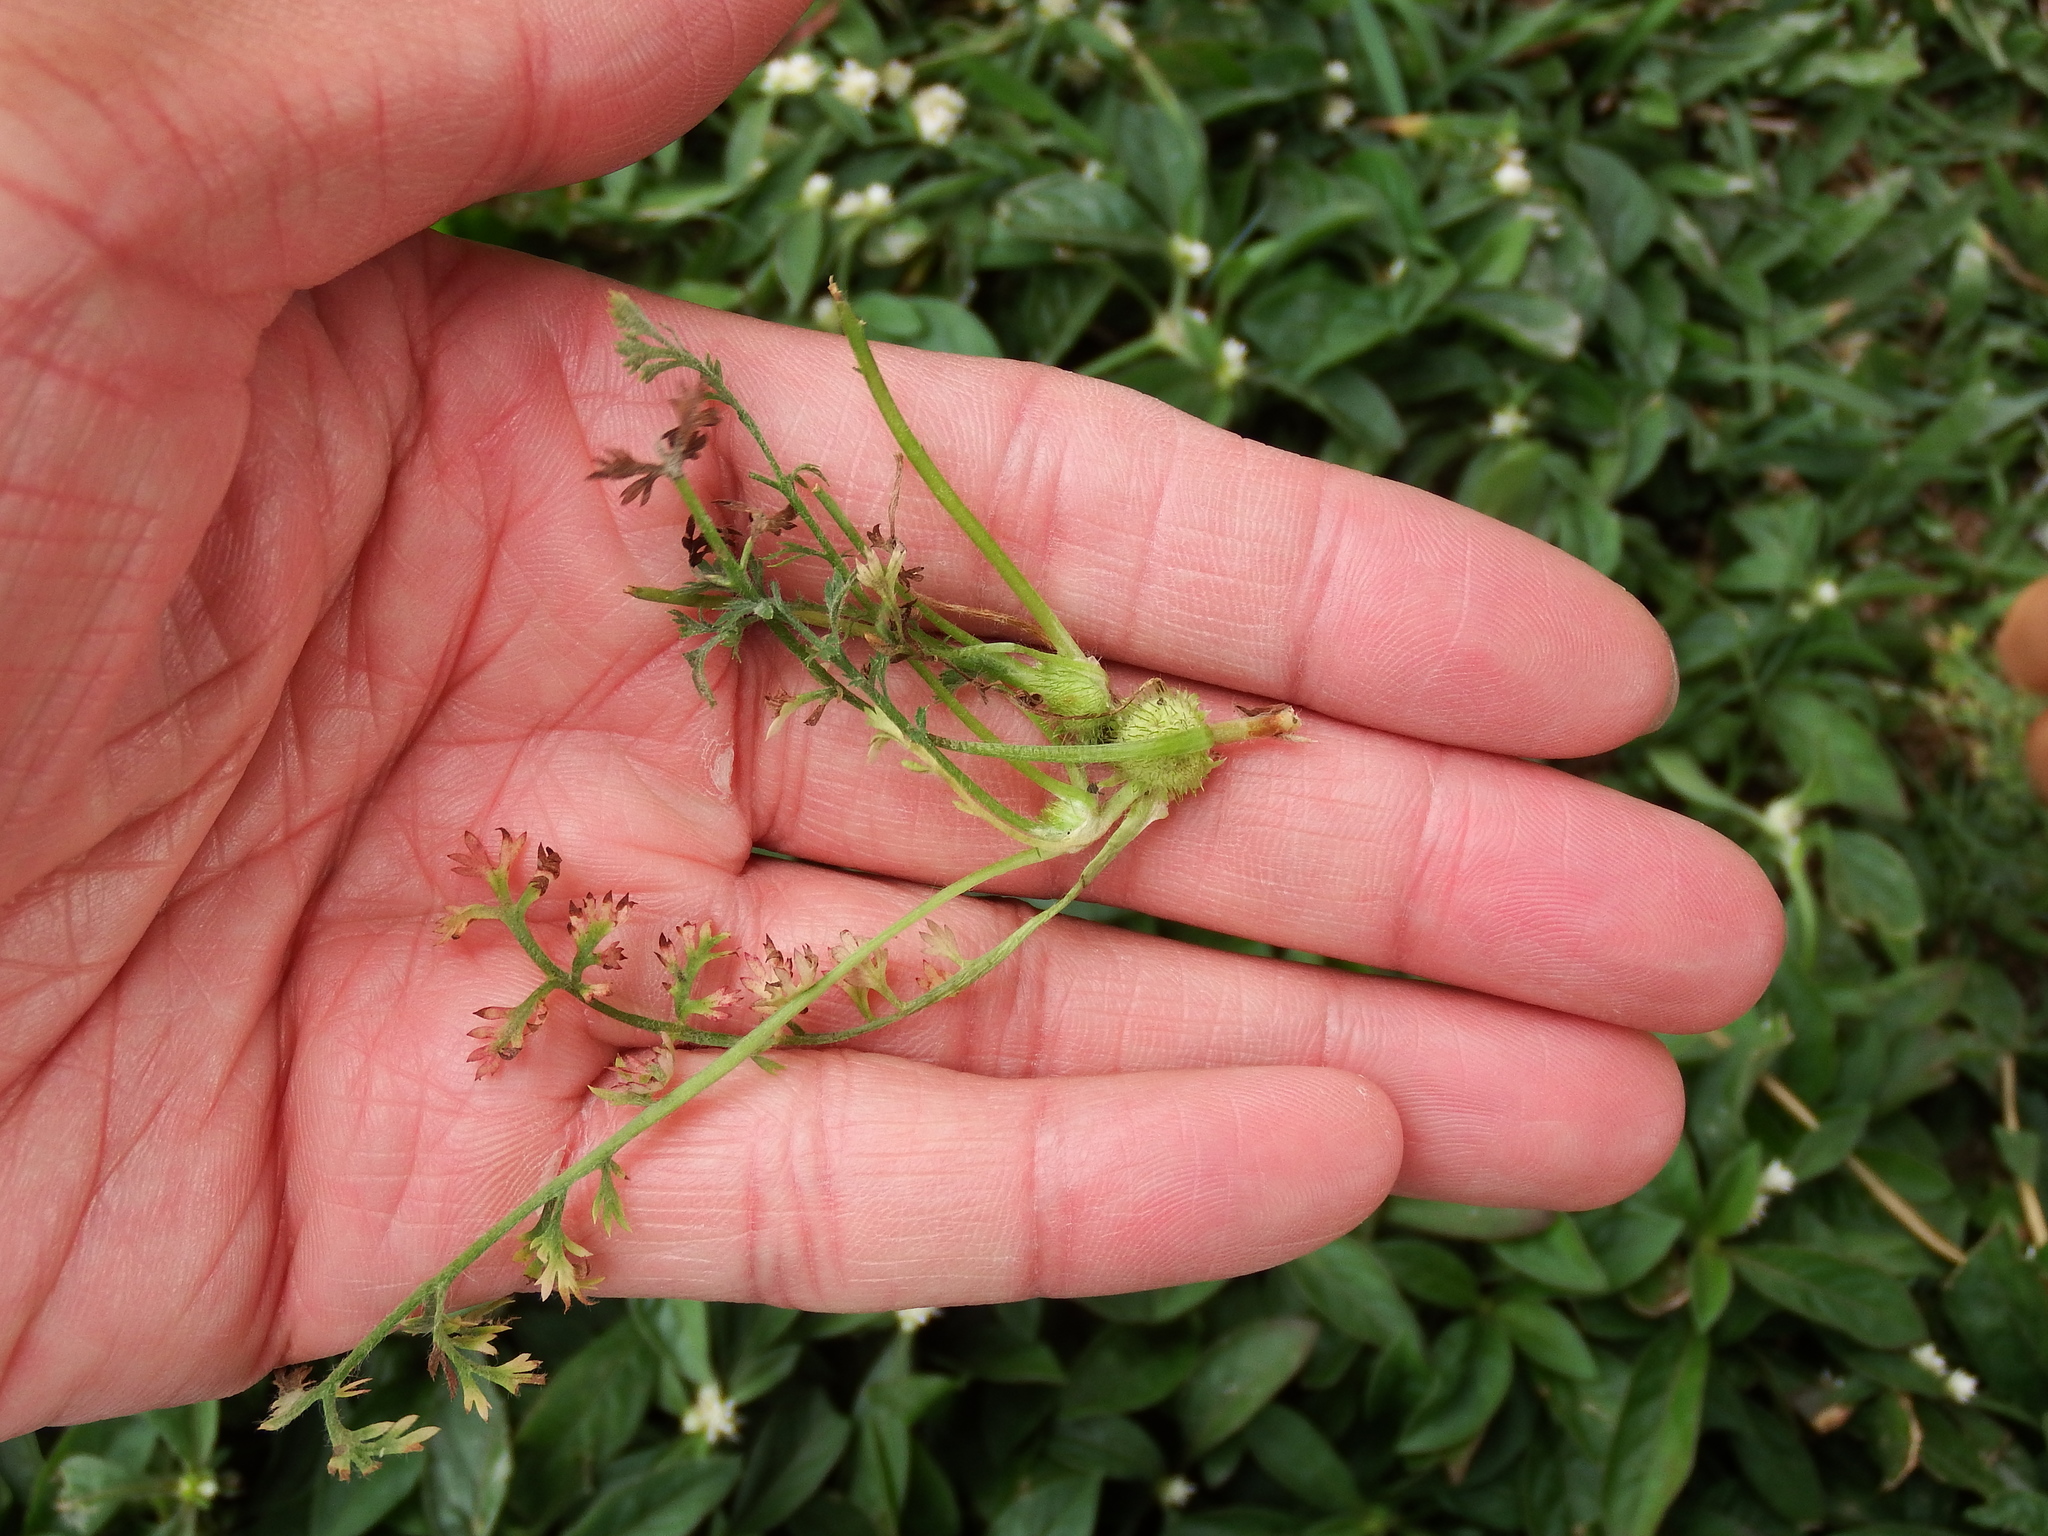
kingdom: Plantae
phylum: Tracheophyta
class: Magnoliopsida
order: Asterales
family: Asteraceae
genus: Soliva
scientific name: Soliva anthemifolia
